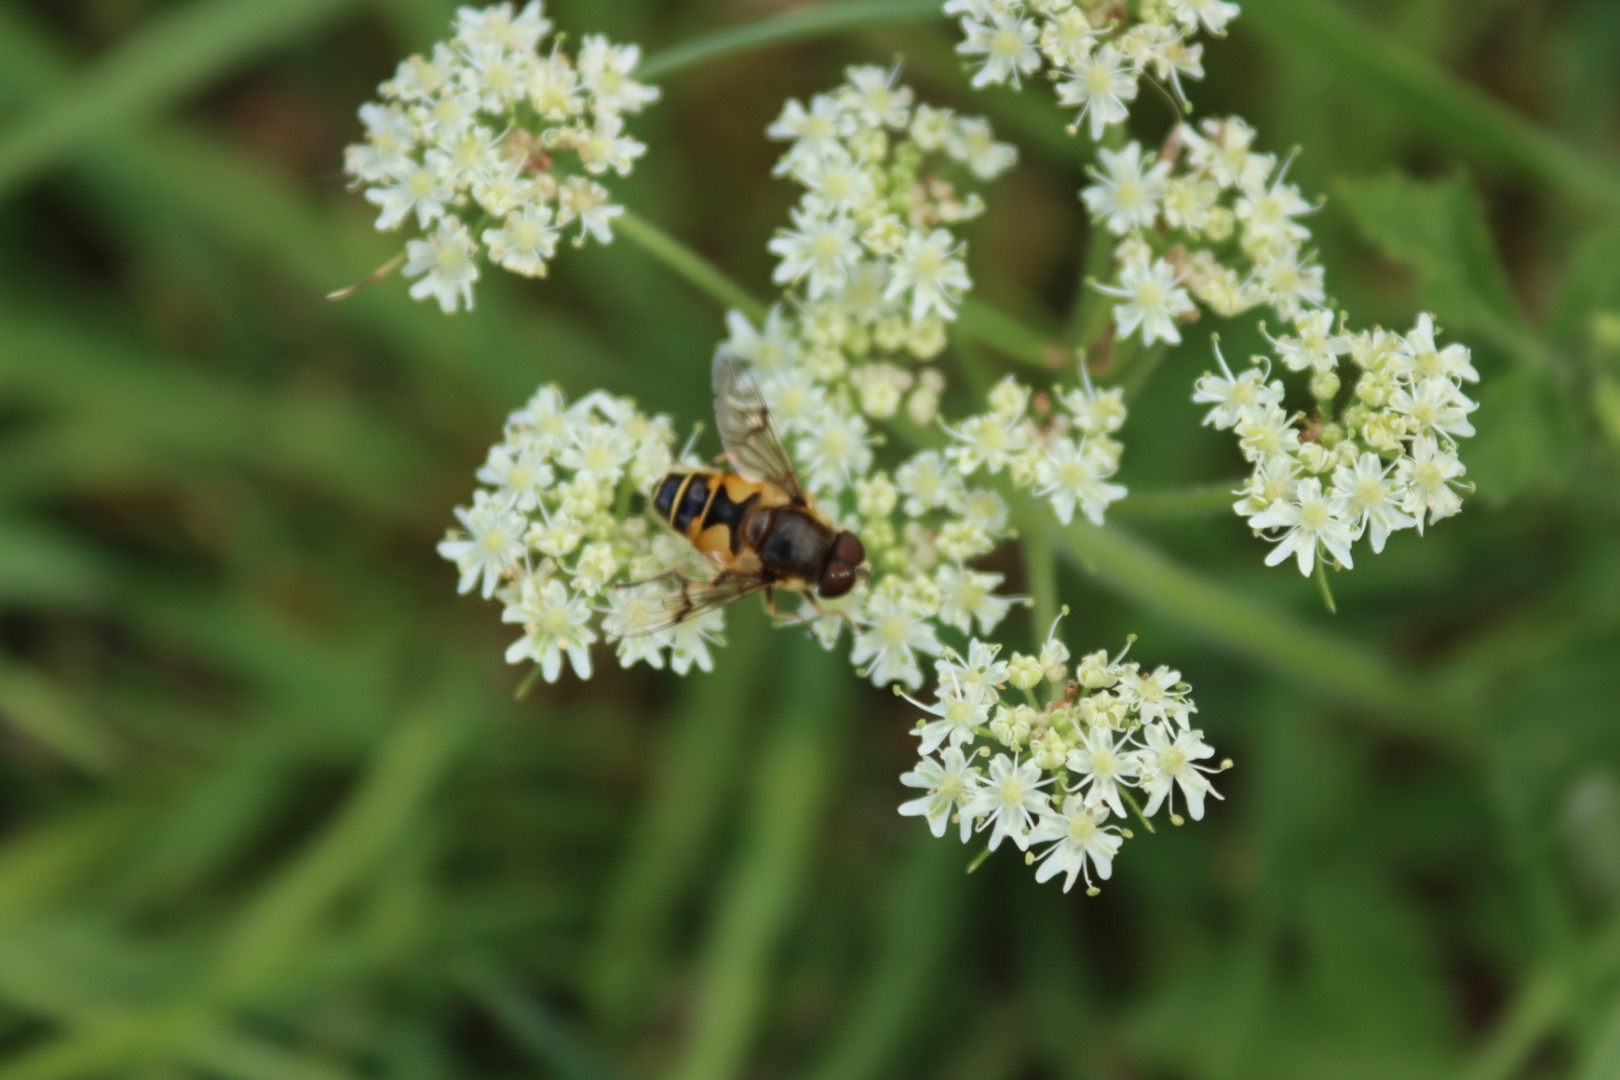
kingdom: Animalia
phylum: Arthropoda
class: Insecta
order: Diptera
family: Syrphidae
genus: Cheilosia
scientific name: Cheilosia morio
